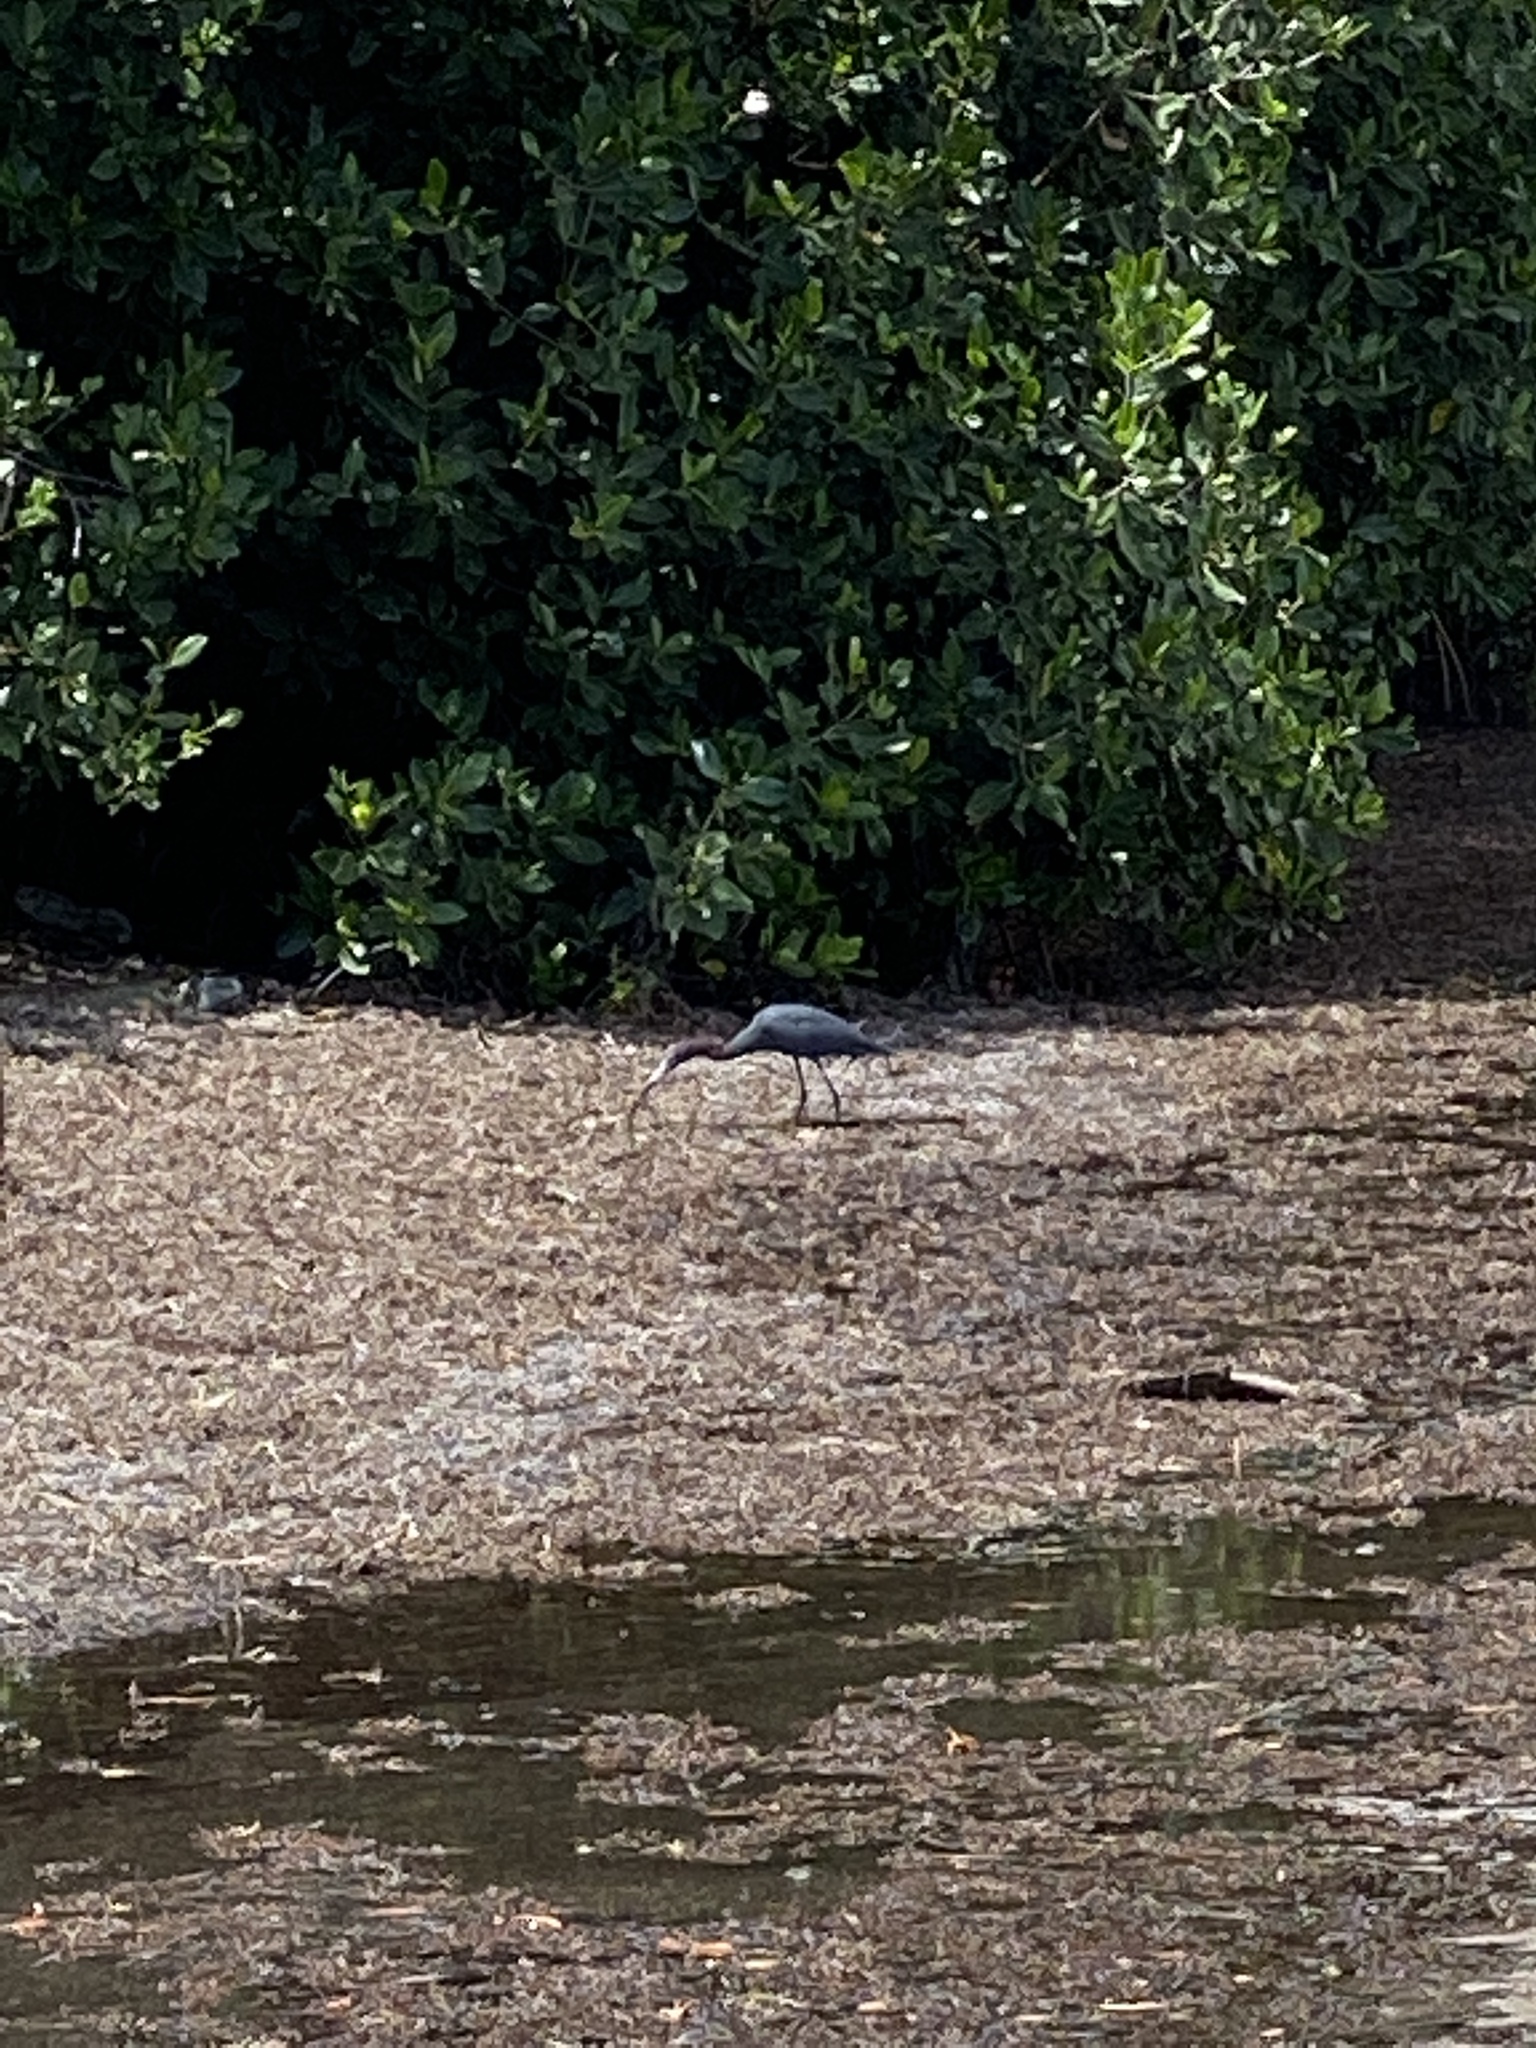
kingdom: Animalia
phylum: Chordata
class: Aves
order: Pelecaniformes
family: Ardeidae
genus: Egretta
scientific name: Egretta caerulea
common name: Little blue heron
